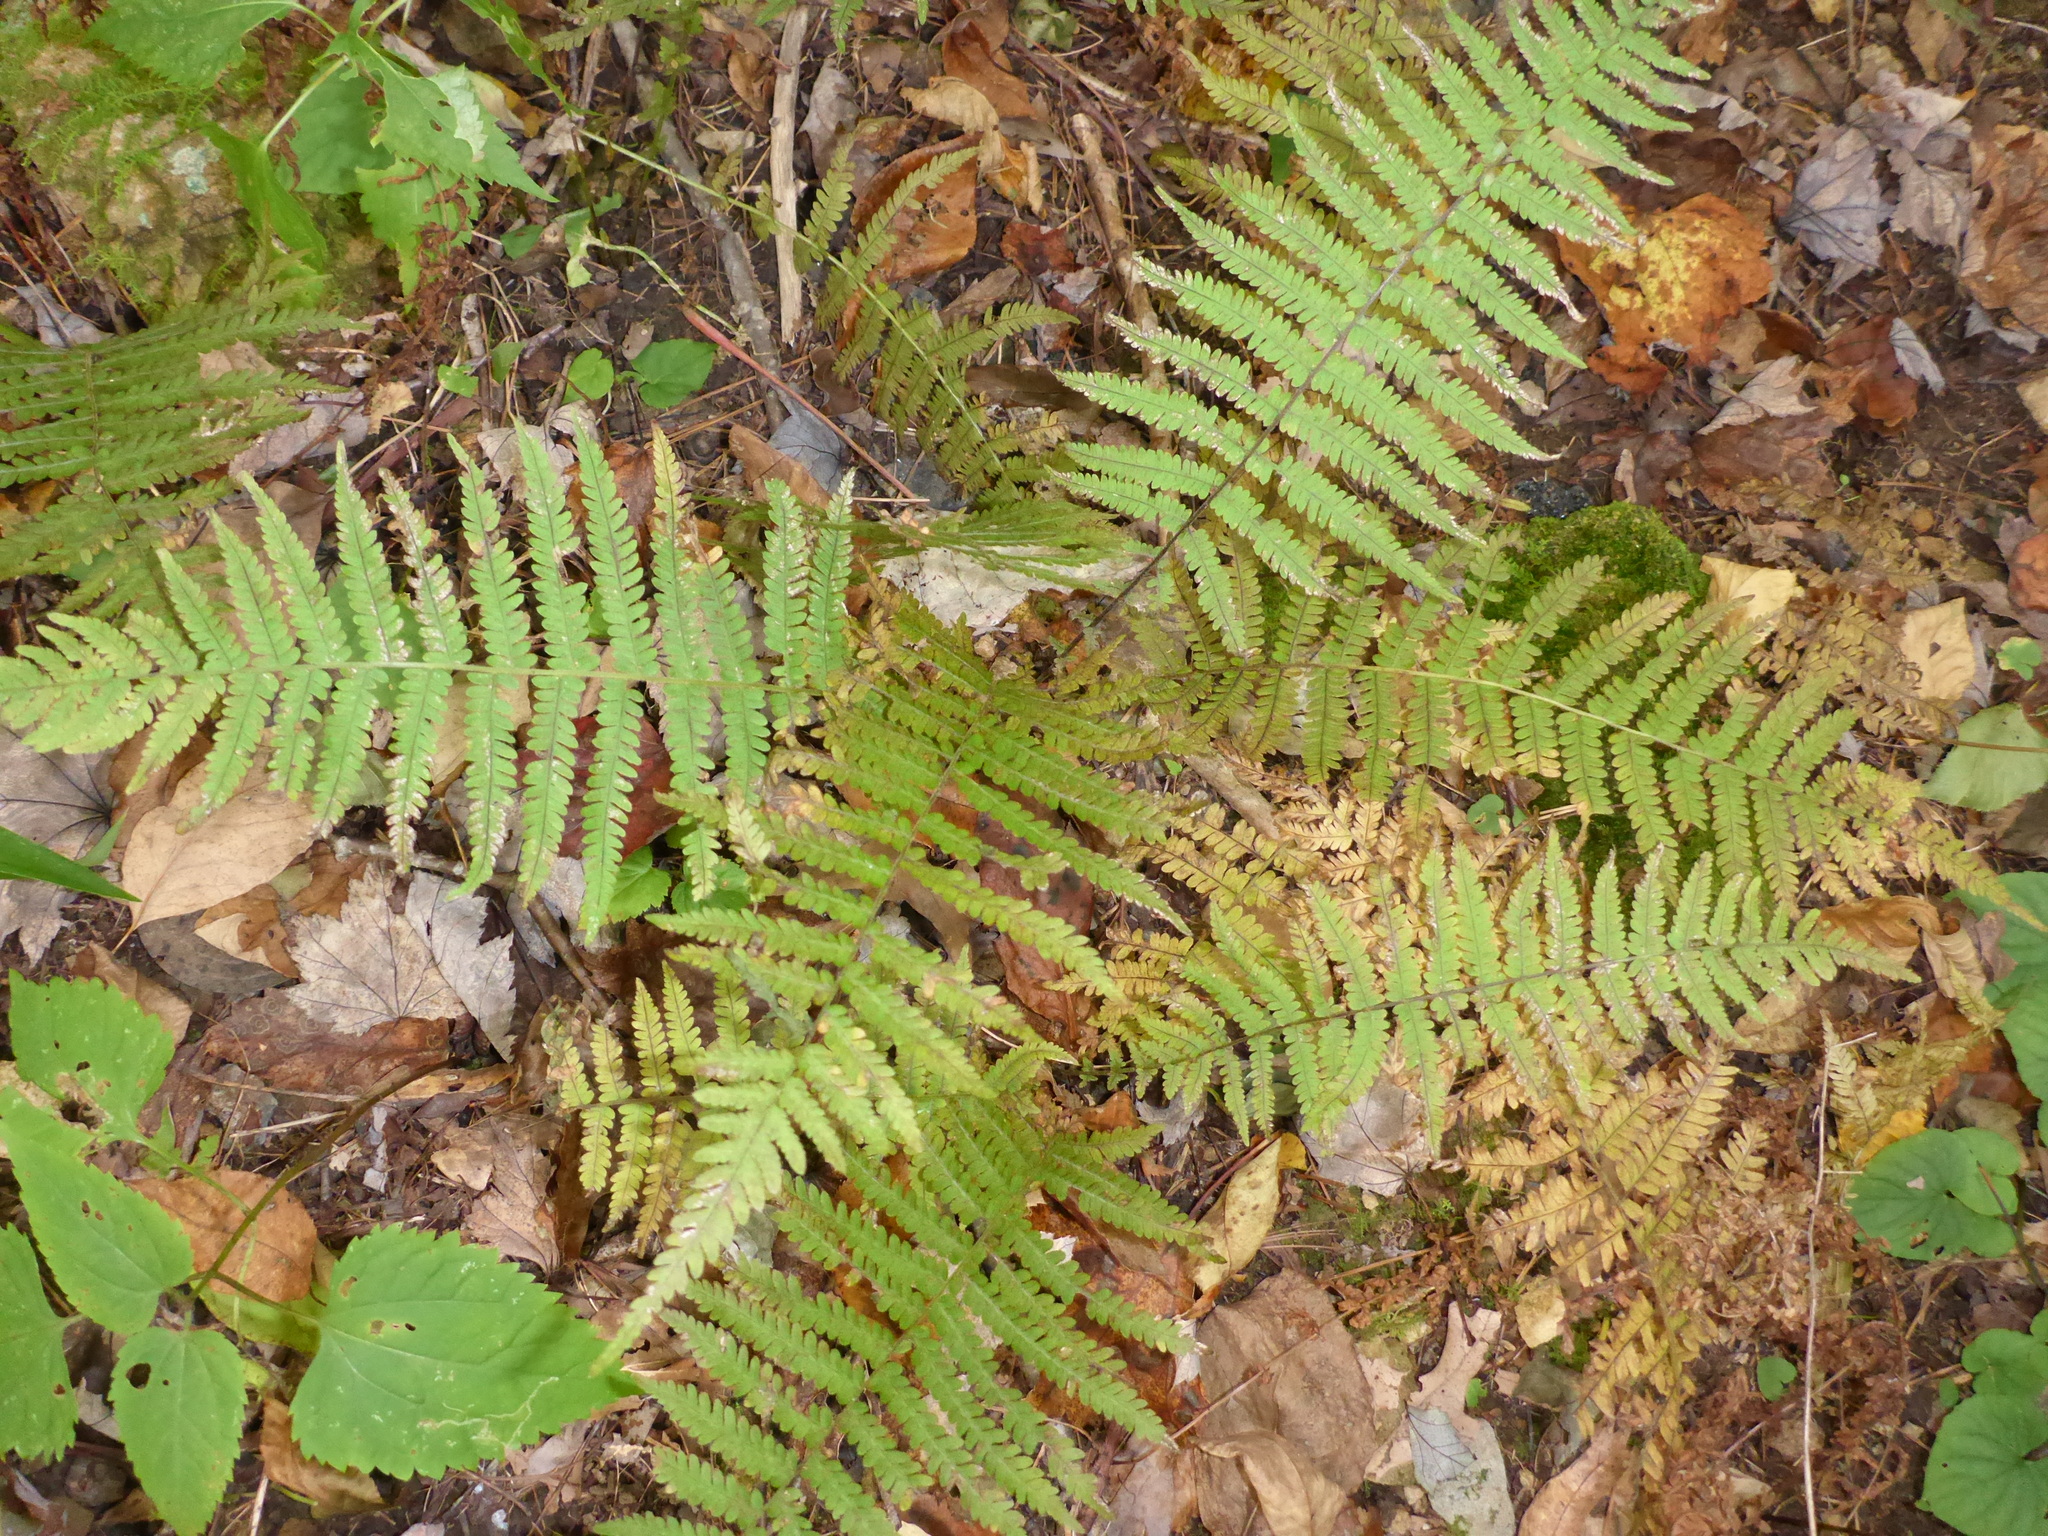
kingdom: Plantae
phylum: Tracheophyta
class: Polypodiopsida
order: Polypodiales
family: Thelypteridaceae
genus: Amauropelta
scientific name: Amauropelta noveboracensis
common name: New york fern
